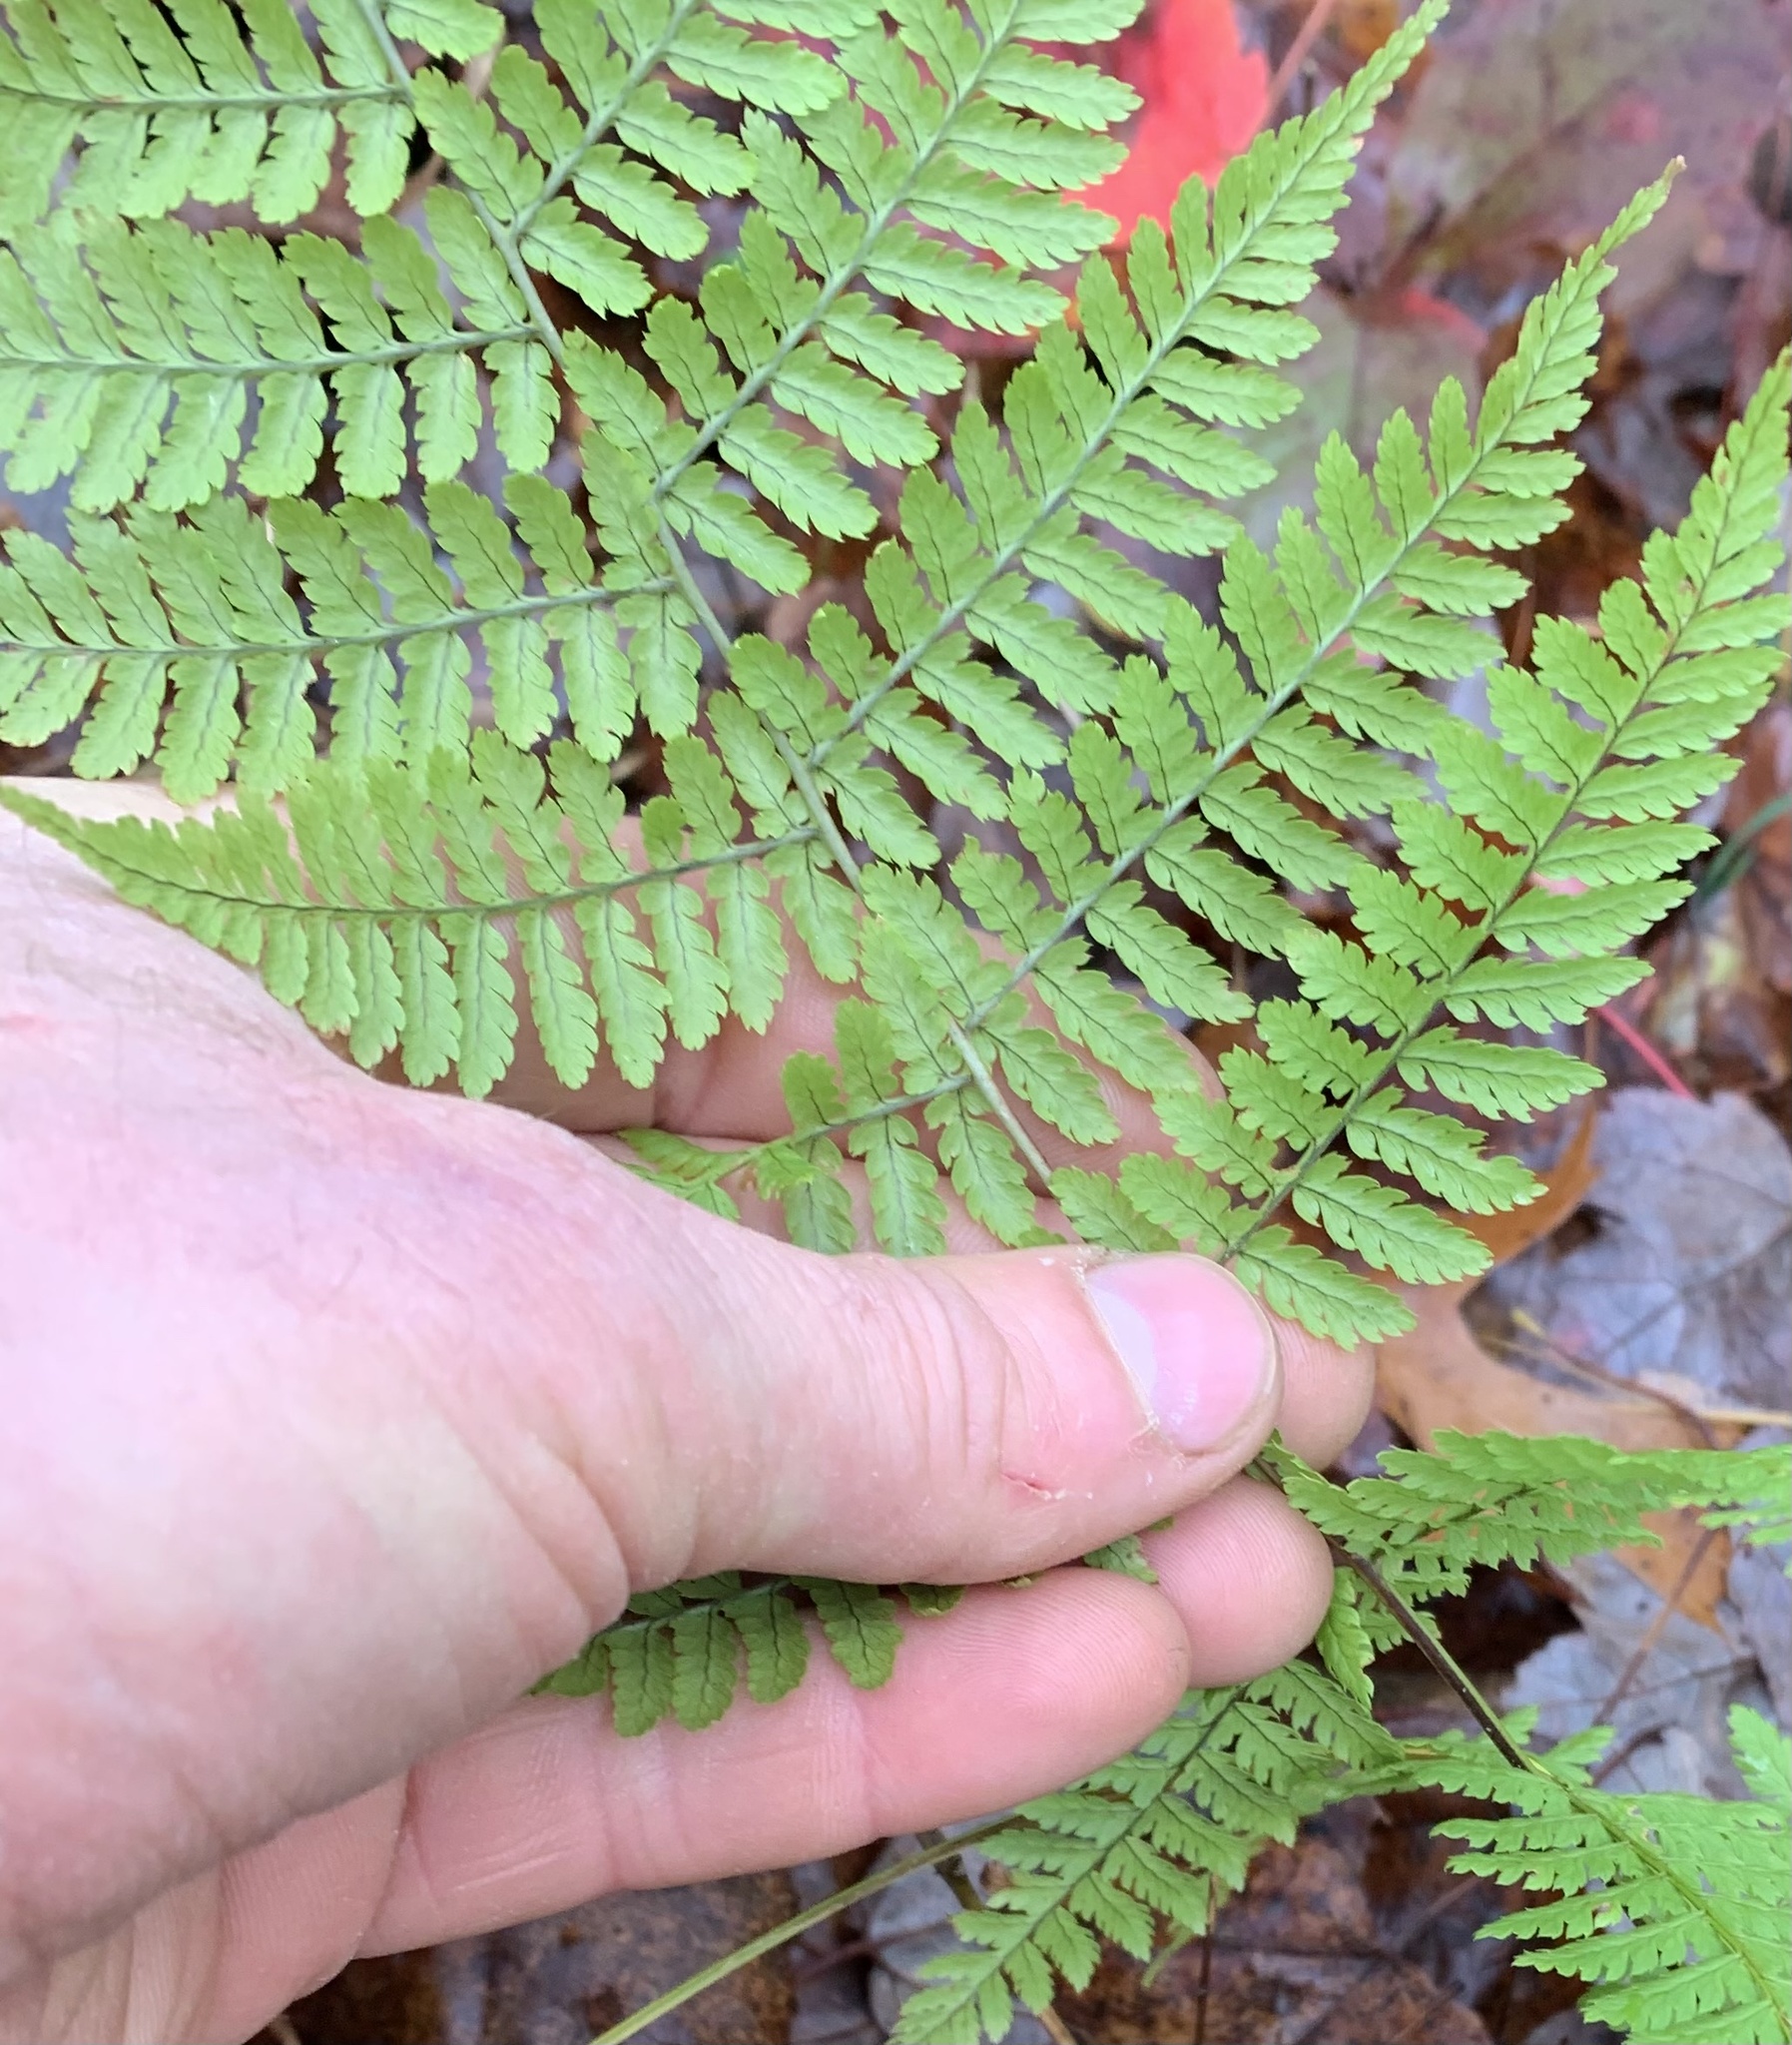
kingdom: Plantae
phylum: Tracheophyta
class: Polypodiopsida
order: Polypodiales
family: Dryopteridaceae
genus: Dryopteris
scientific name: Dryopteris intermedia
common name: Evergreen wood fern
